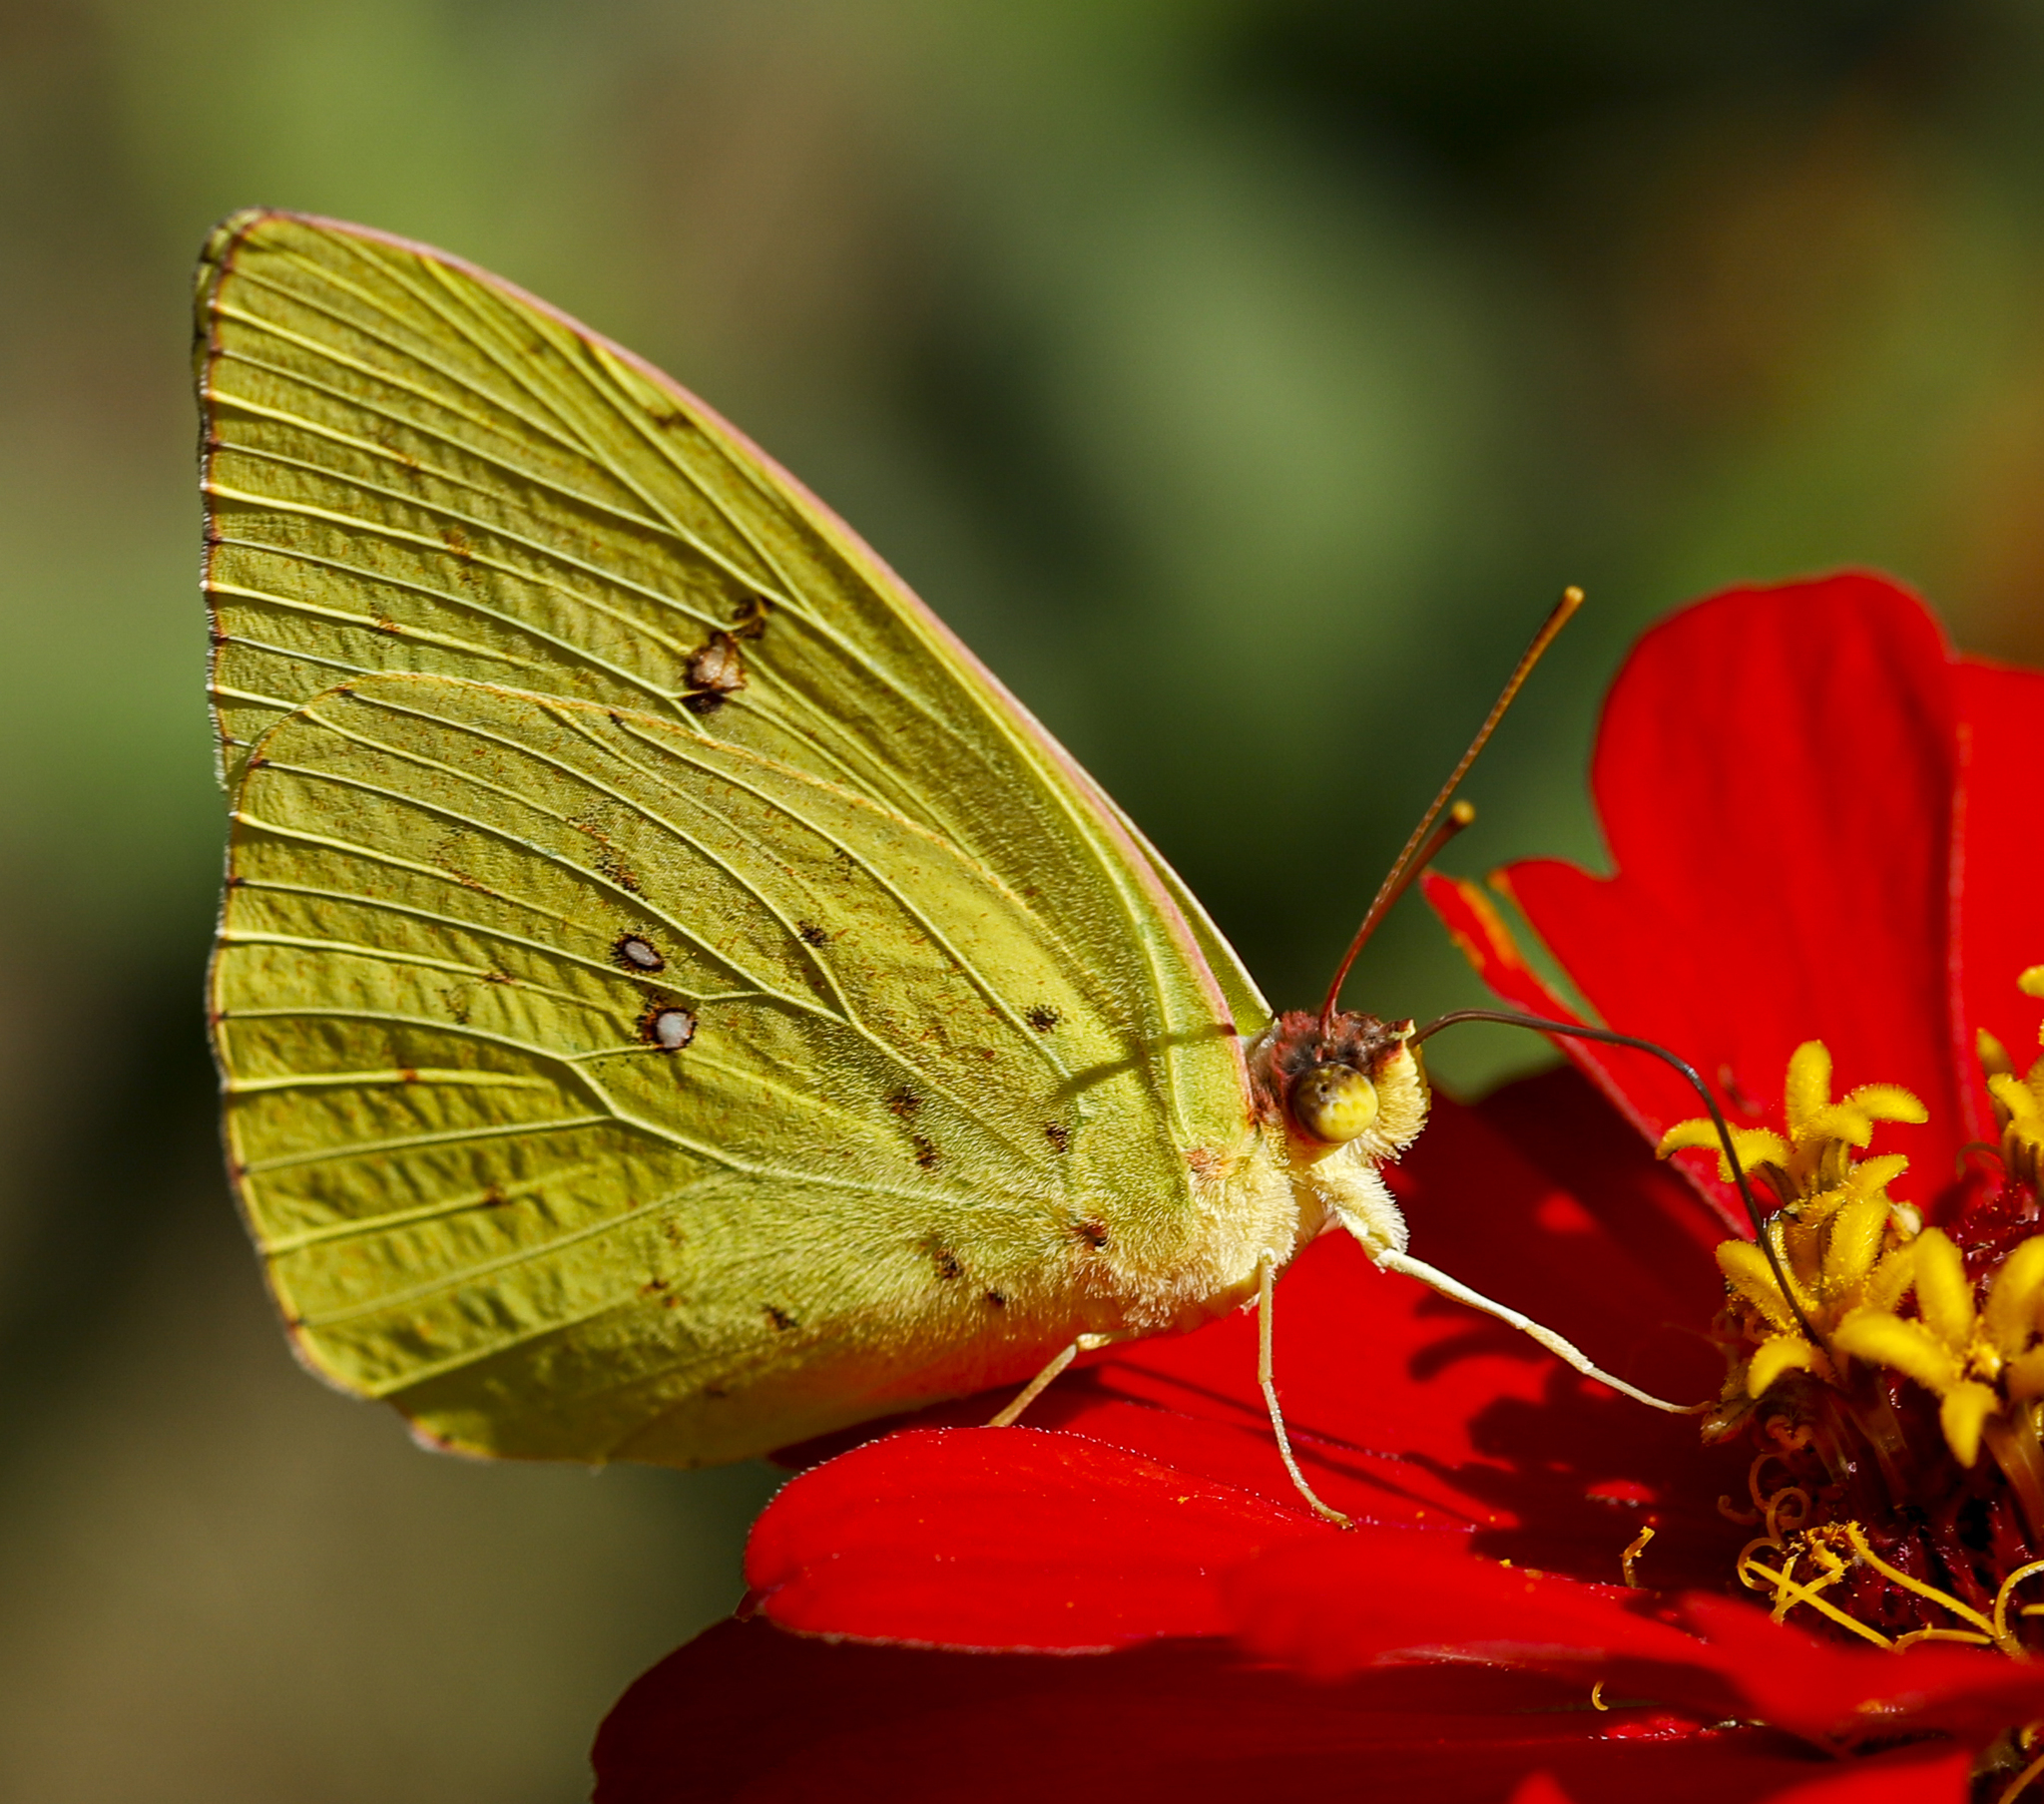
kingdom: Animalia
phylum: Arthropoda
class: Insecta
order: Lepidoptera
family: Pieridae
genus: Phoebis
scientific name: Phoebis sennae
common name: Cloudless sulphur
